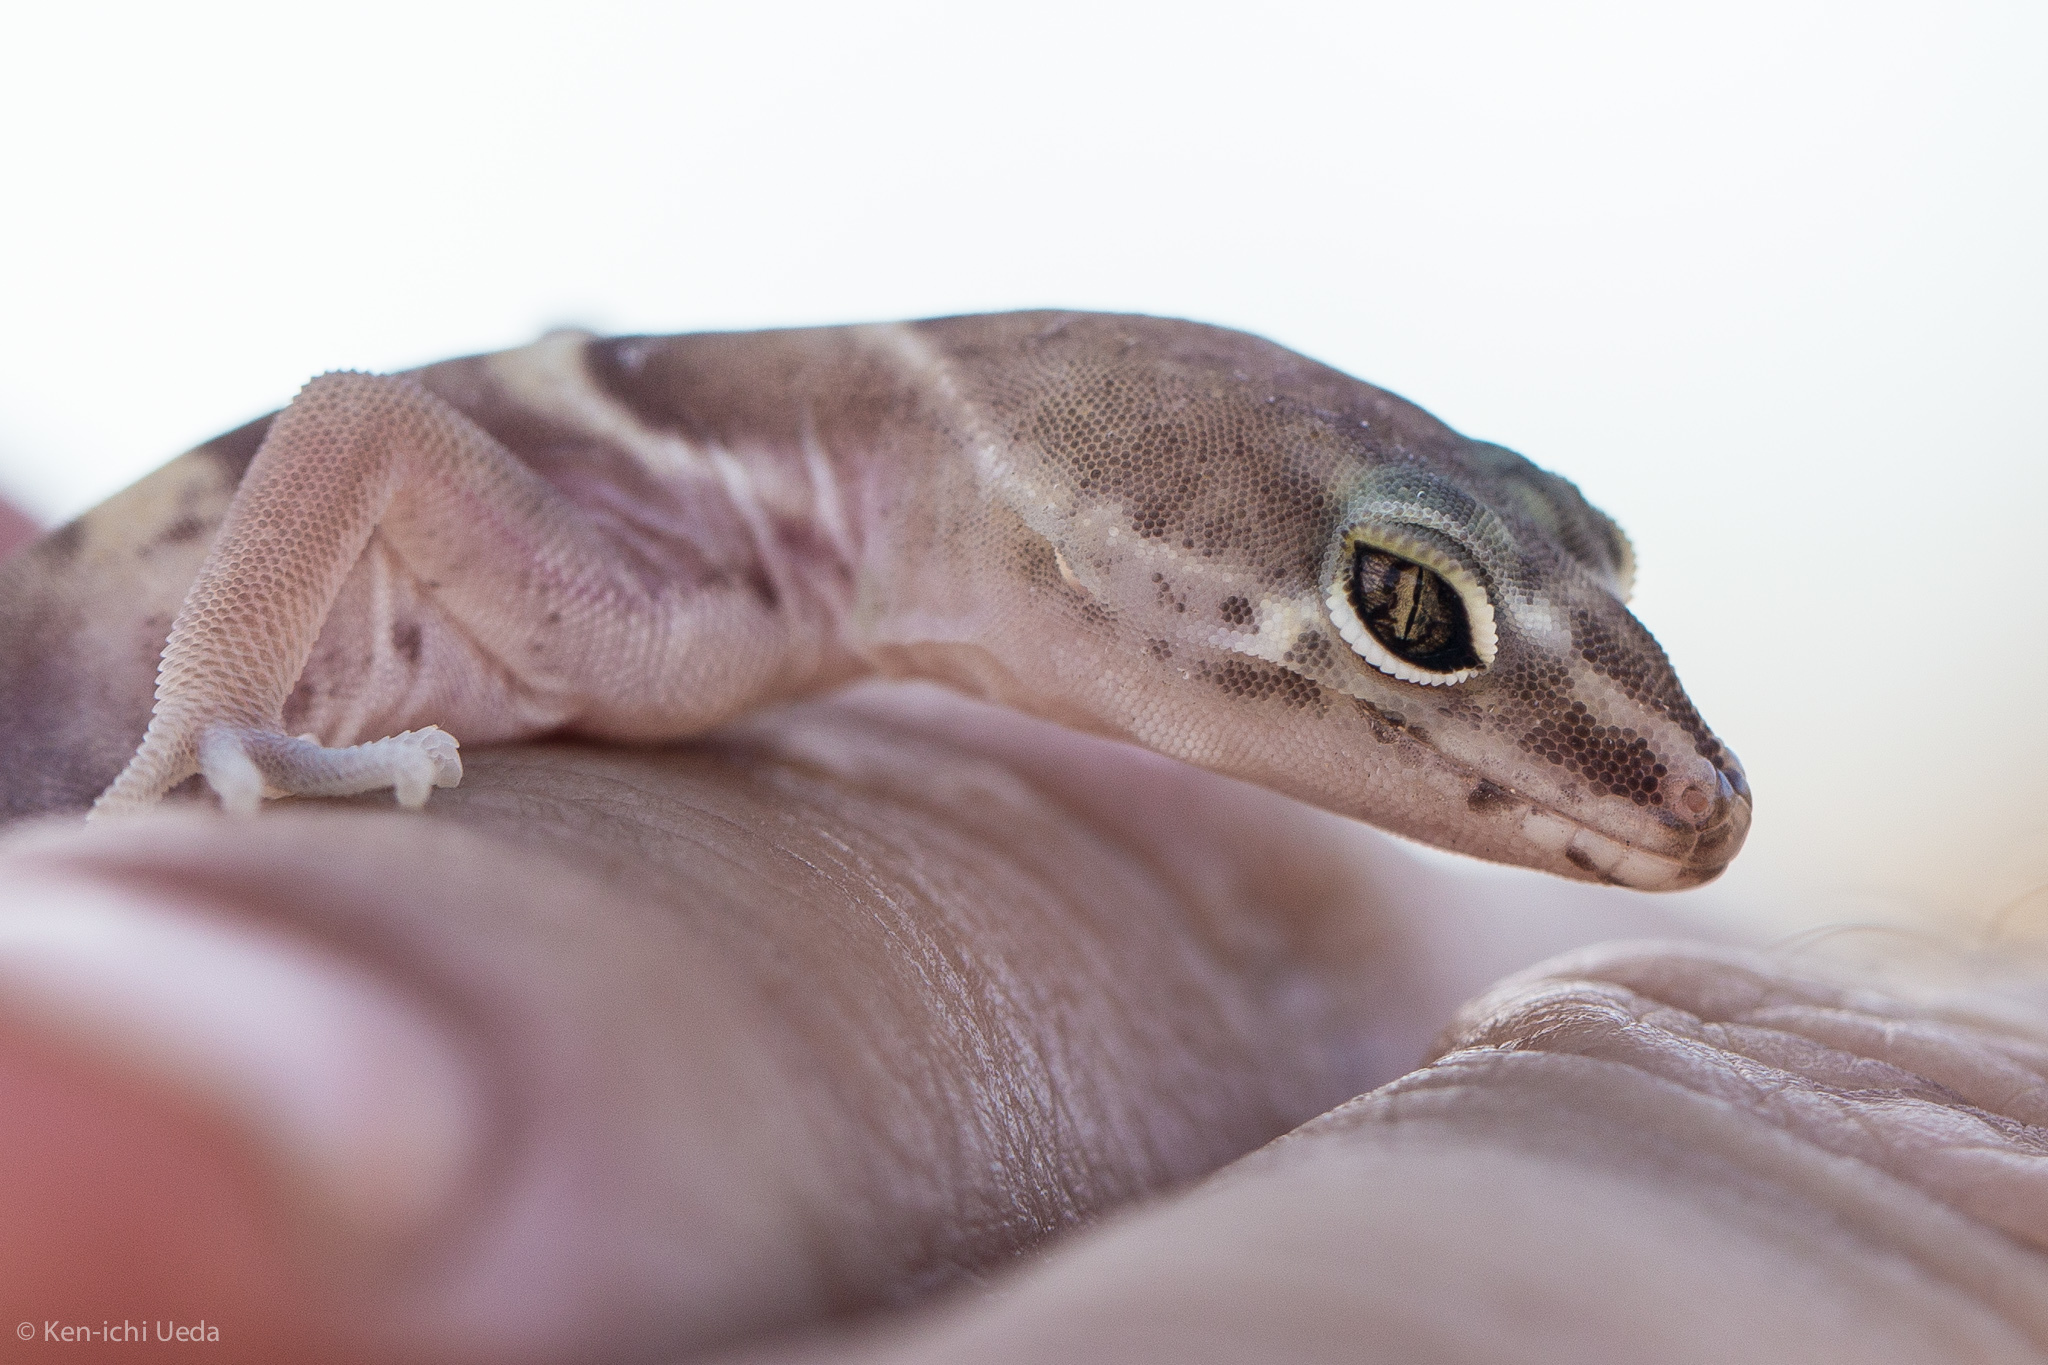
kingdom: Animalia
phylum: Chordata
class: Squamata
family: Eublepharidae
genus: Coleonyx
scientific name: Coleonyx variegatus
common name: Western banded gecko
